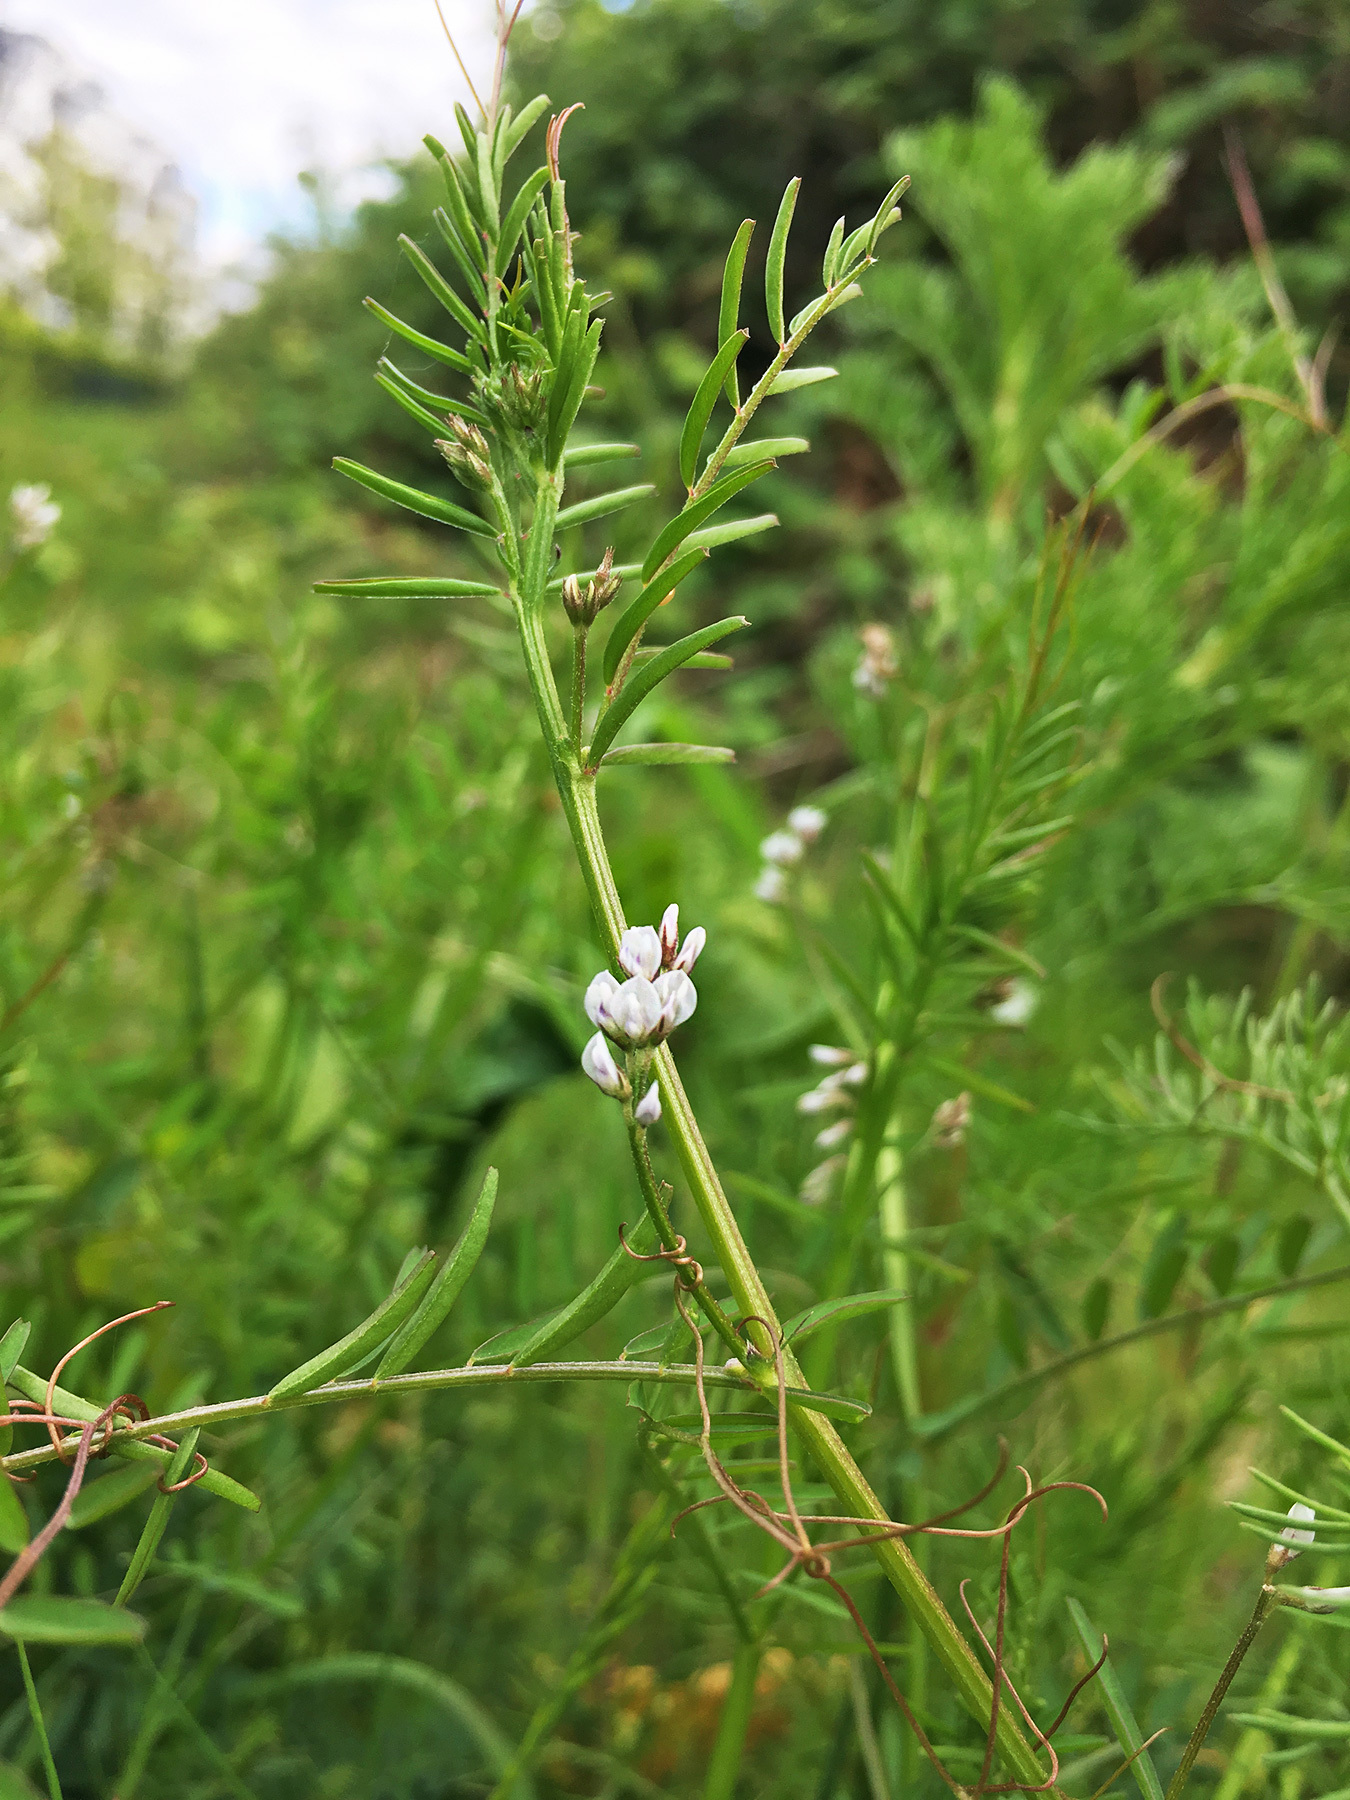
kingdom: Plantae
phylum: Tracheophyta
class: Magnoliopsida
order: Fabales
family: Fabaceae
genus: Vicia
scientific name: Vicia hirsuta
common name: Tiny vetch
